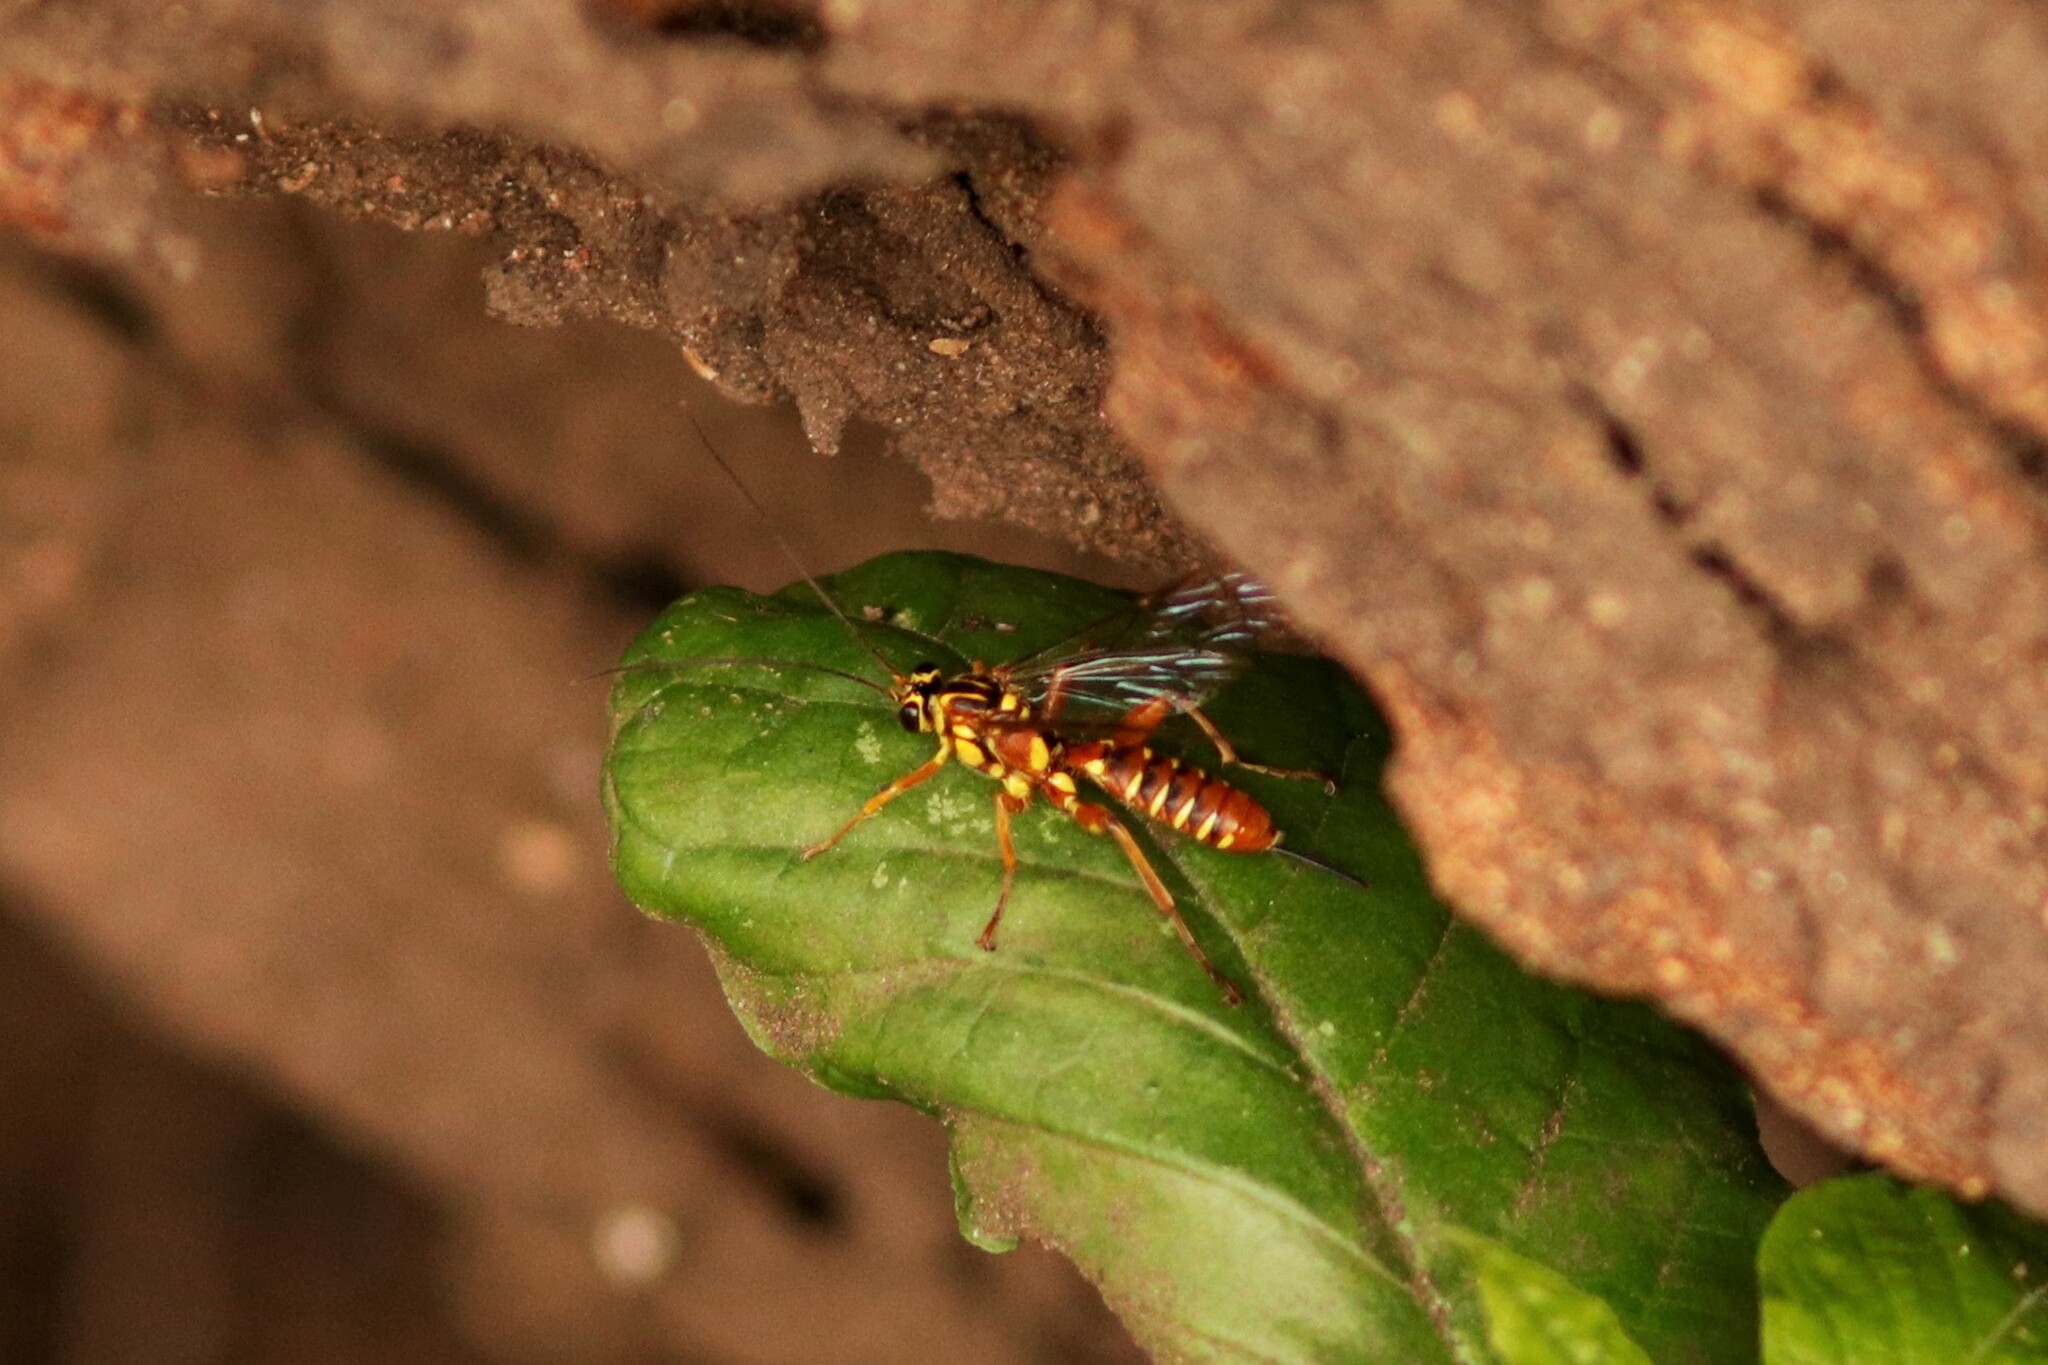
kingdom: Animalia
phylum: Arthropoda
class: Insecta
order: Hymenoptera
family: Ichneumonidae
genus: Echthromorpha
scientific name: Echthromorpha agrestoria
